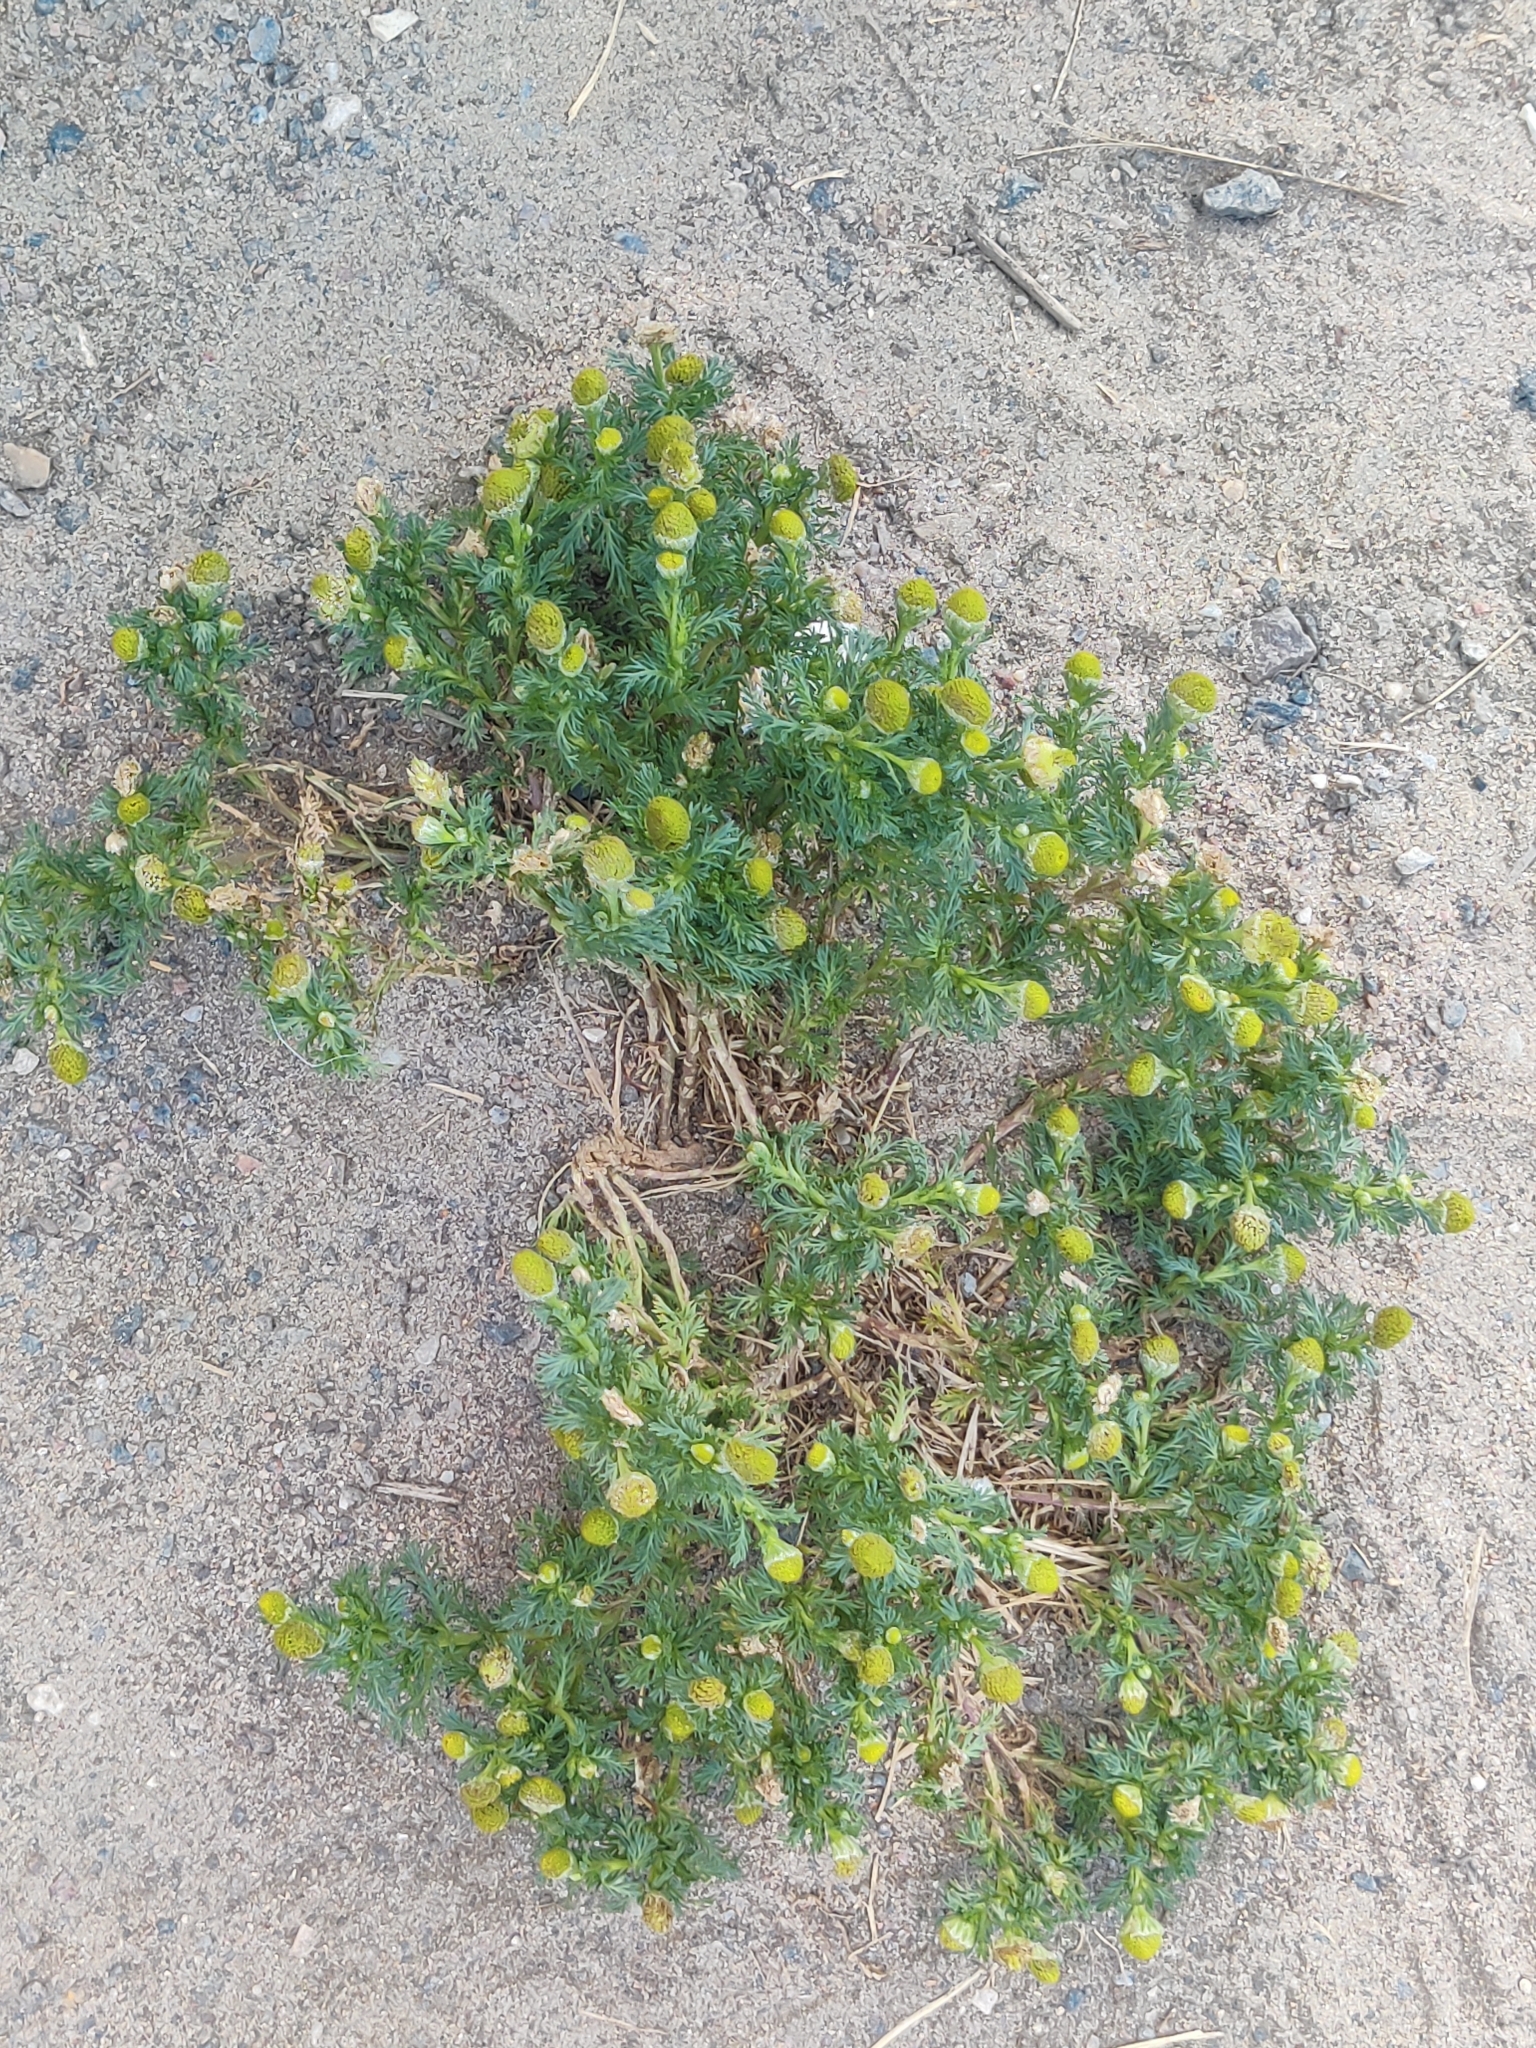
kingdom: Plantae
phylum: Tracheophyta
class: Magnoliopsida
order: Asterales
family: Asteraceae
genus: Matricaria
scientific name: Matricaria discoidea
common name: Disc mayweed
